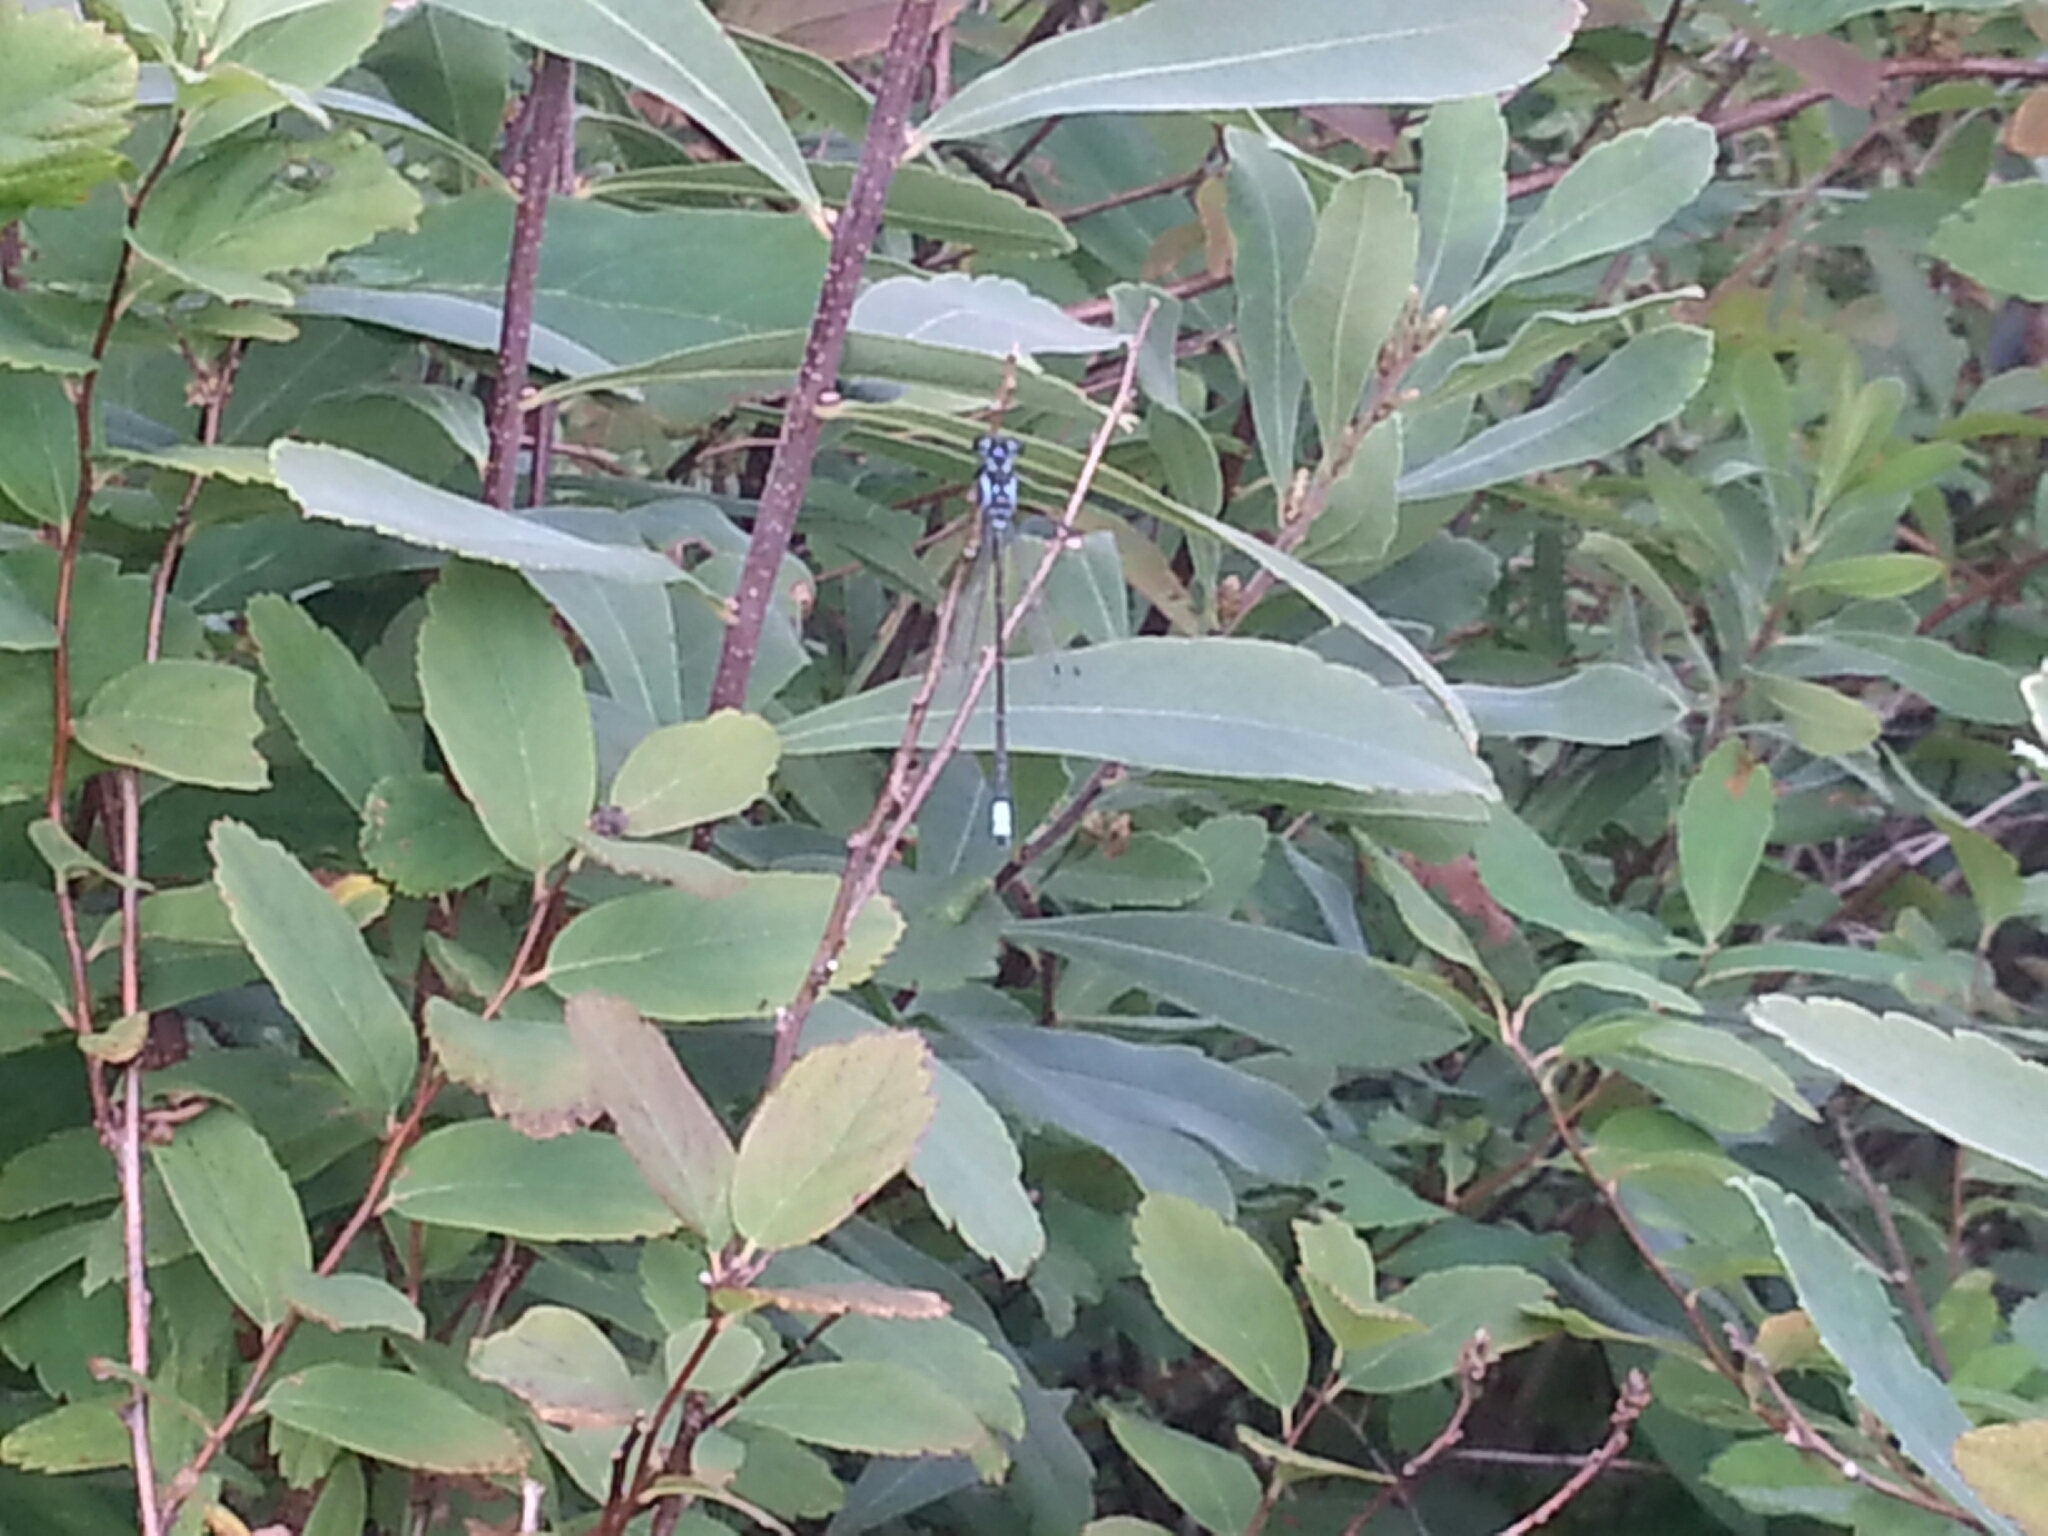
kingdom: Animalia
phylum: Arthropoda
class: Insecta
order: Odonata
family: Coenagrionidae
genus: Ischnura
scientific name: Ischnura cervula
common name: Pacific forktail
